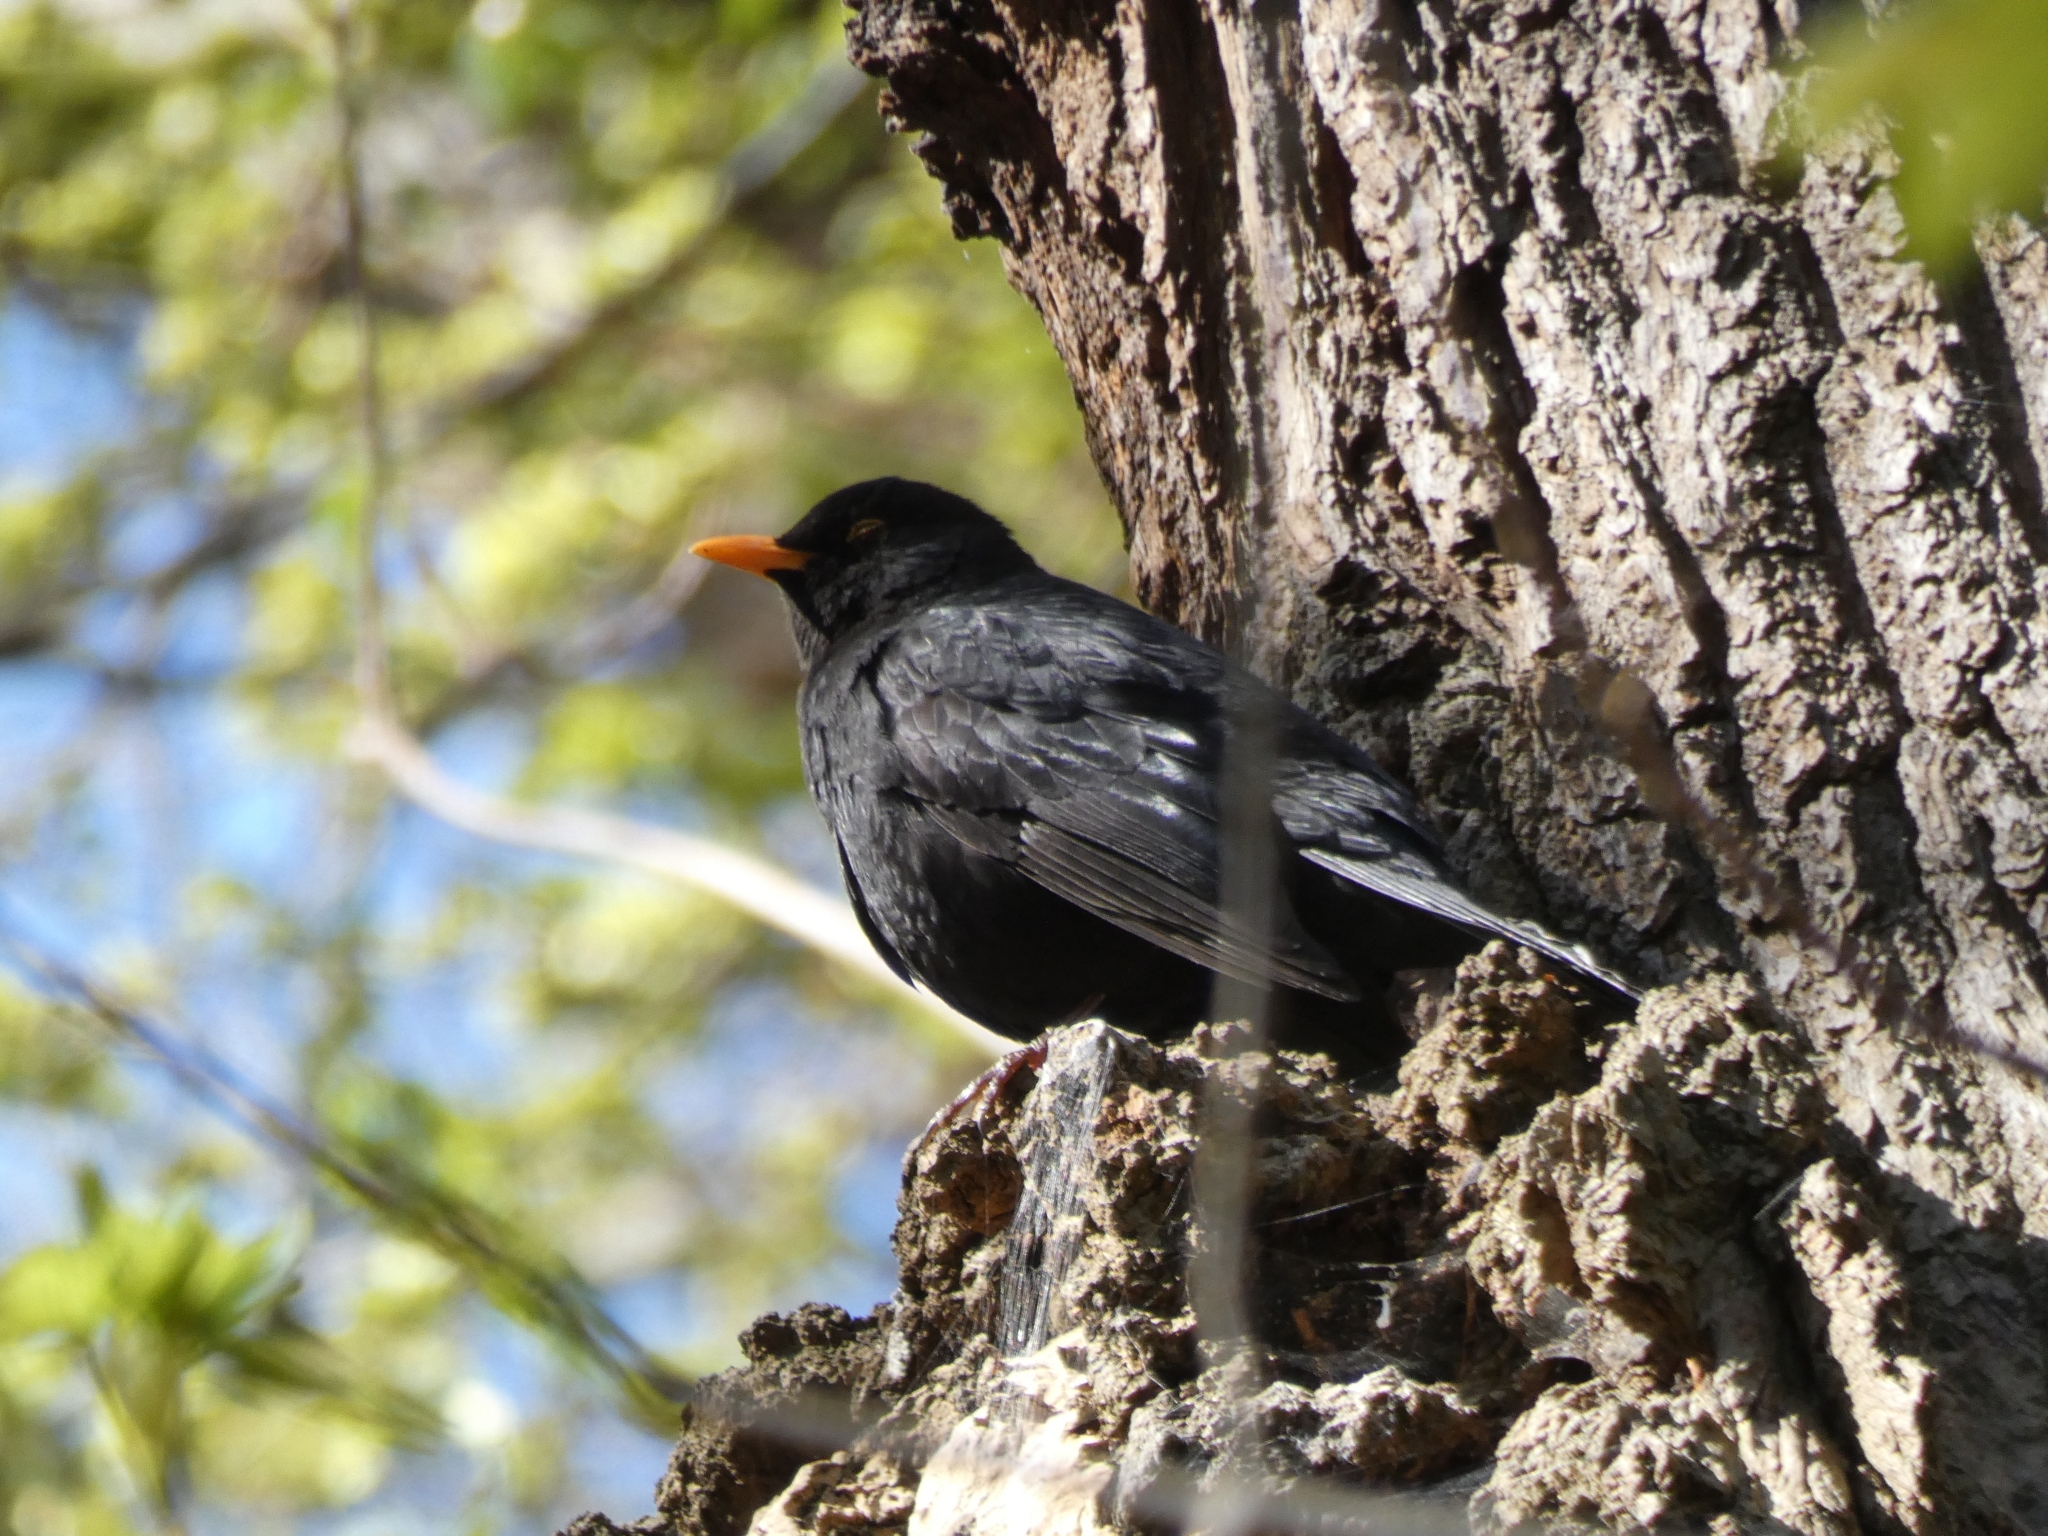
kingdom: Animalia
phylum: Chordata
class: Aves
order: Passeriformes
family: Turdidae
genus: Turdus
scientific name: Turdus merula
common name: Common blackbird
